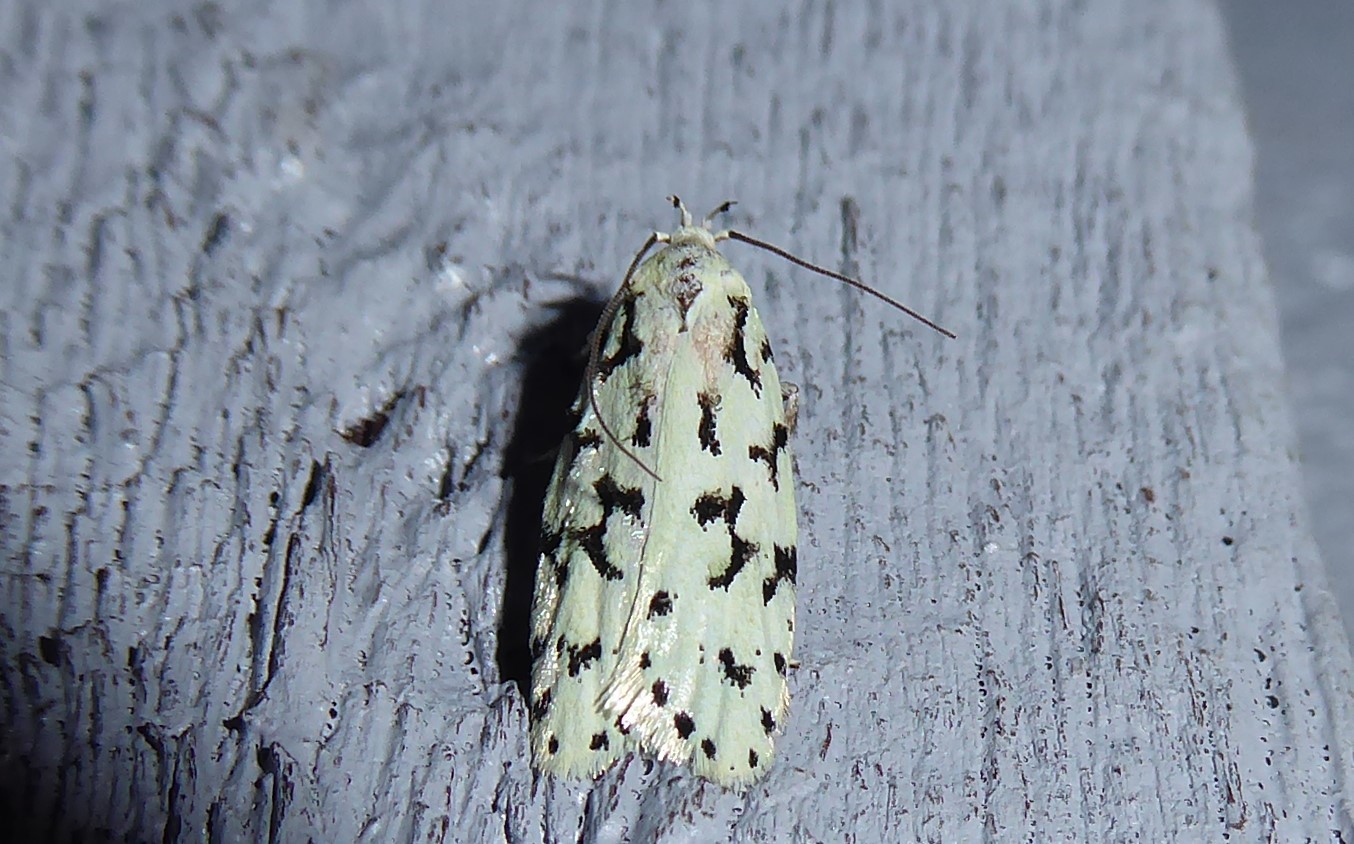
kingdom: Animalia
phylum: Arthropoda
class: Insecta
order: Lepidoptera
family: Oecophoridae
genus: Izatha
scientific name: Izatha huttoni
